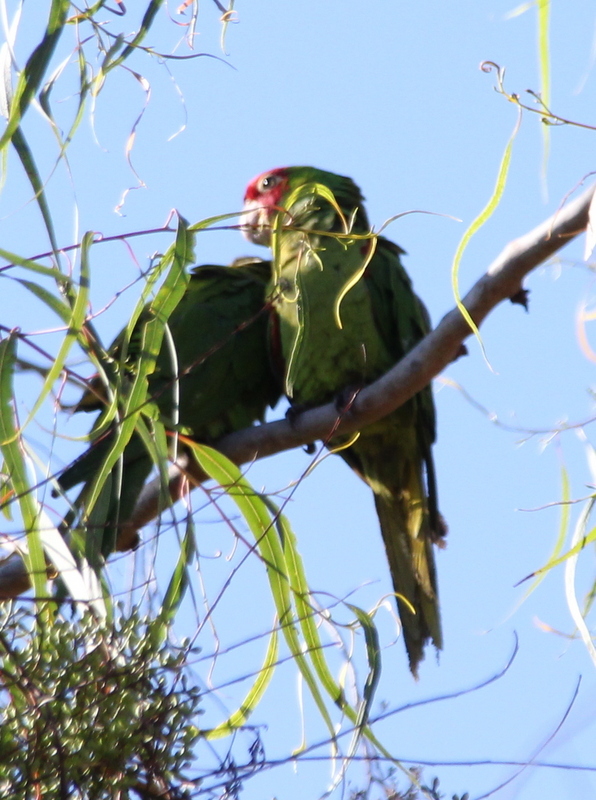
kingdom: Animalia
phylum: Chordata
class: Aves
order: Psittaciformes
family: Psittacidae
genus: Aratinga
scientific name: Aratinga erythrogenys
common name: Red-masked parakeet
